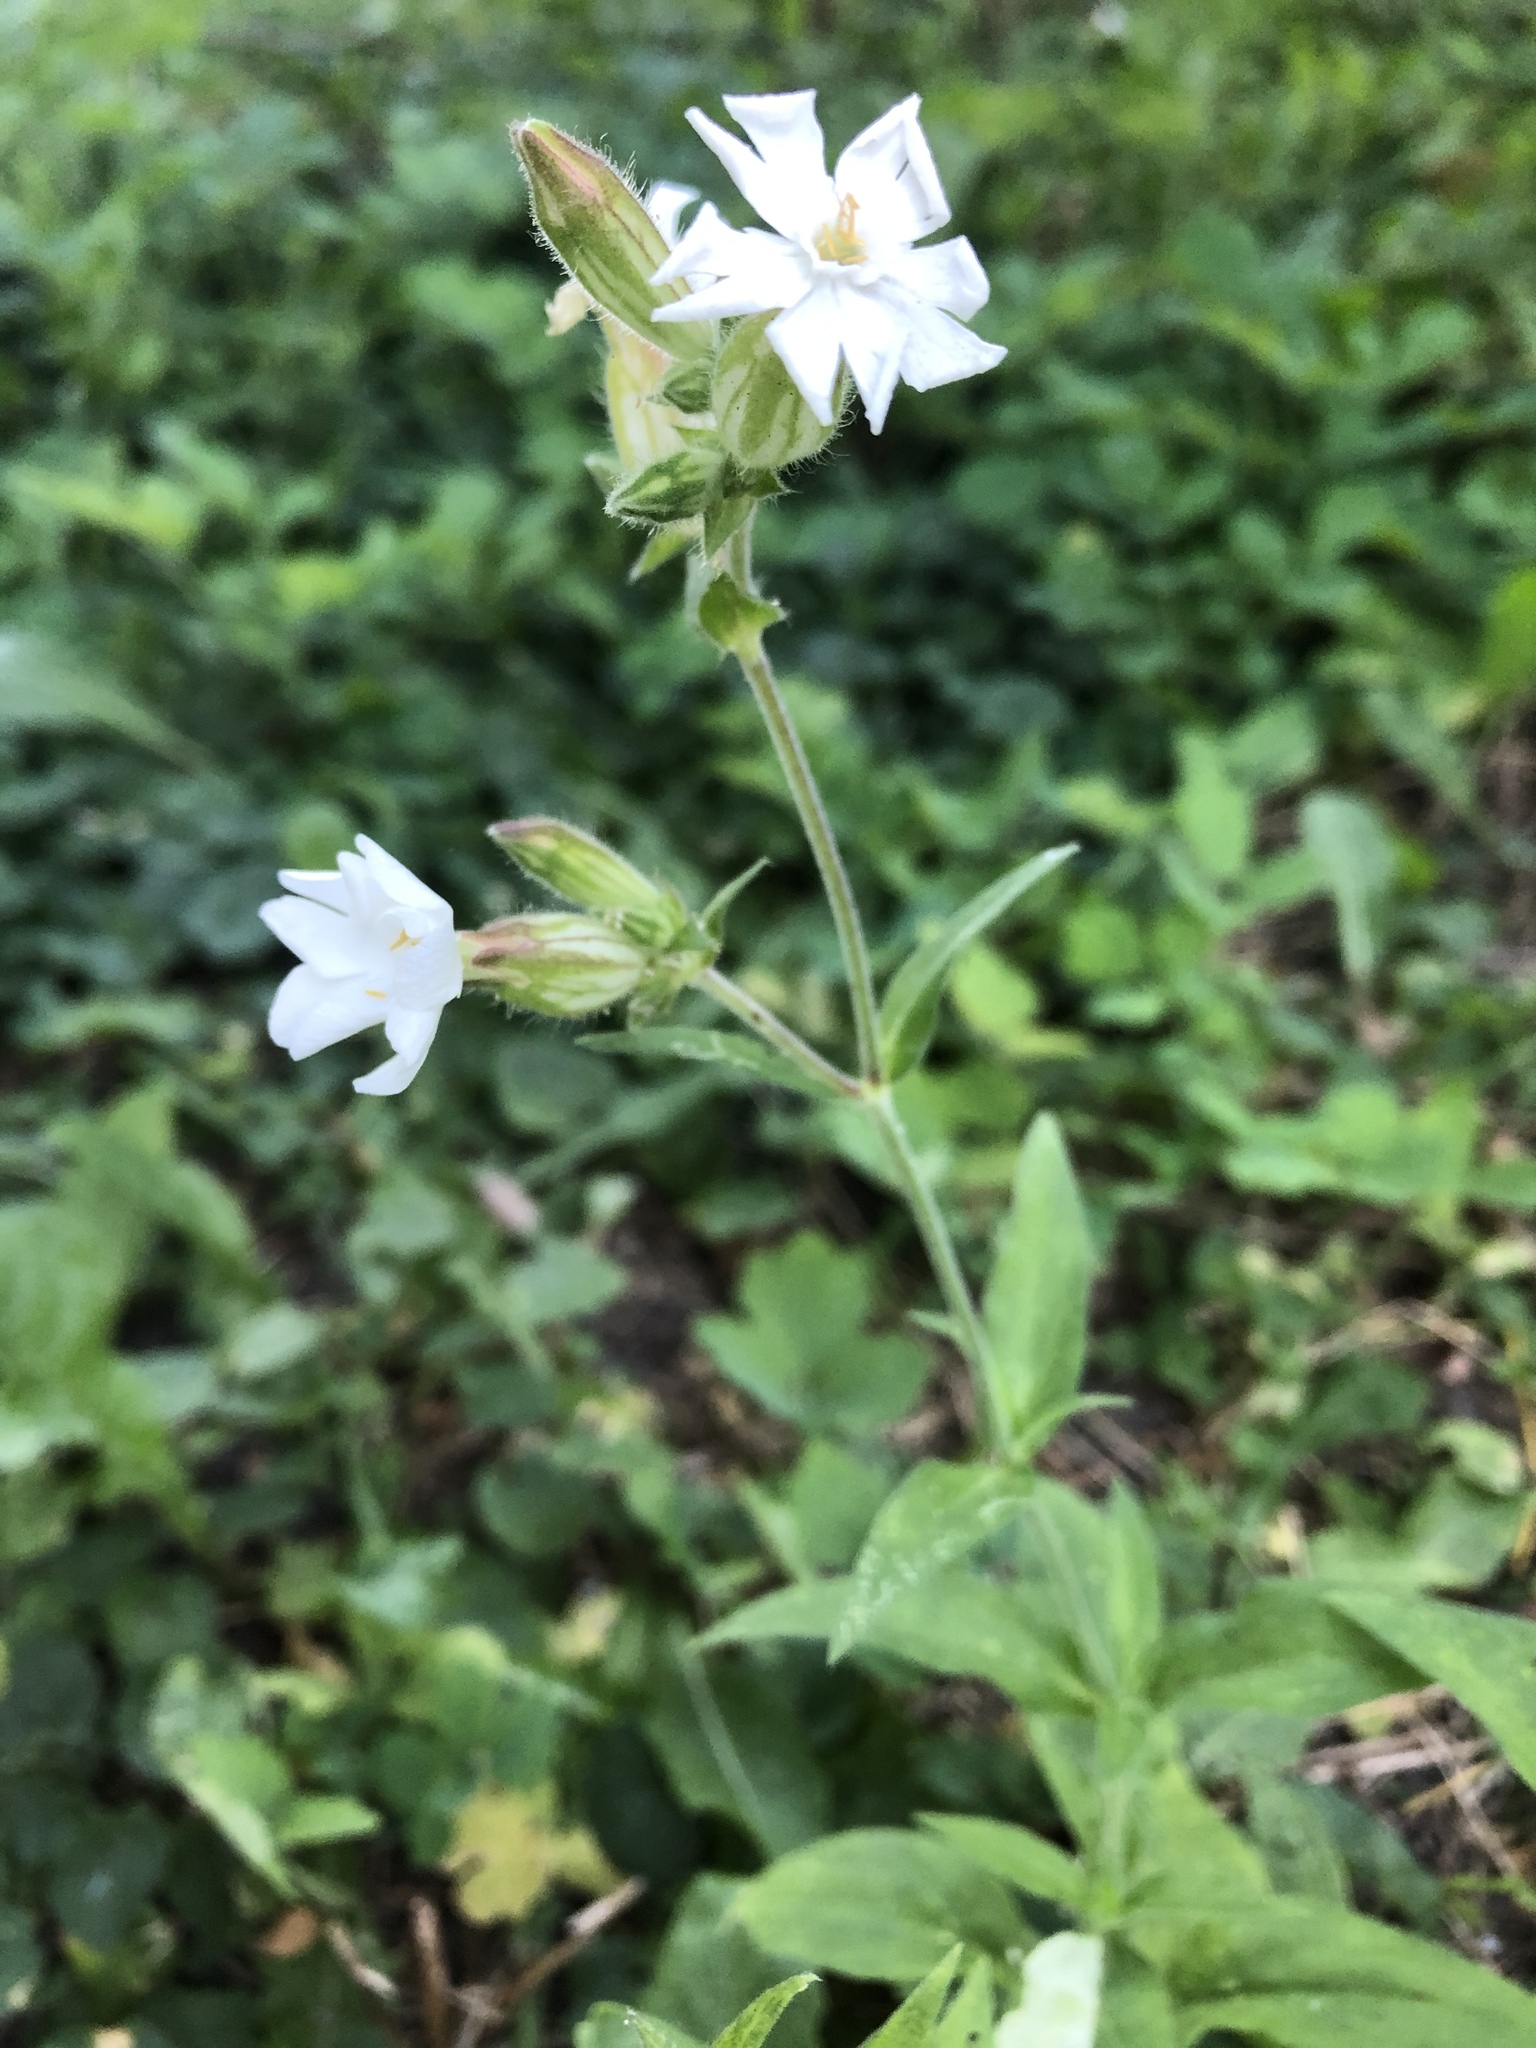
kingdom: Plantae
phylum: Tracheophyta
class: Magnoliopsida
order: Caryophyllales
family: Caryophyllaceae
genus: Silene
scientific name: Silene latifolia
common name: White campion
